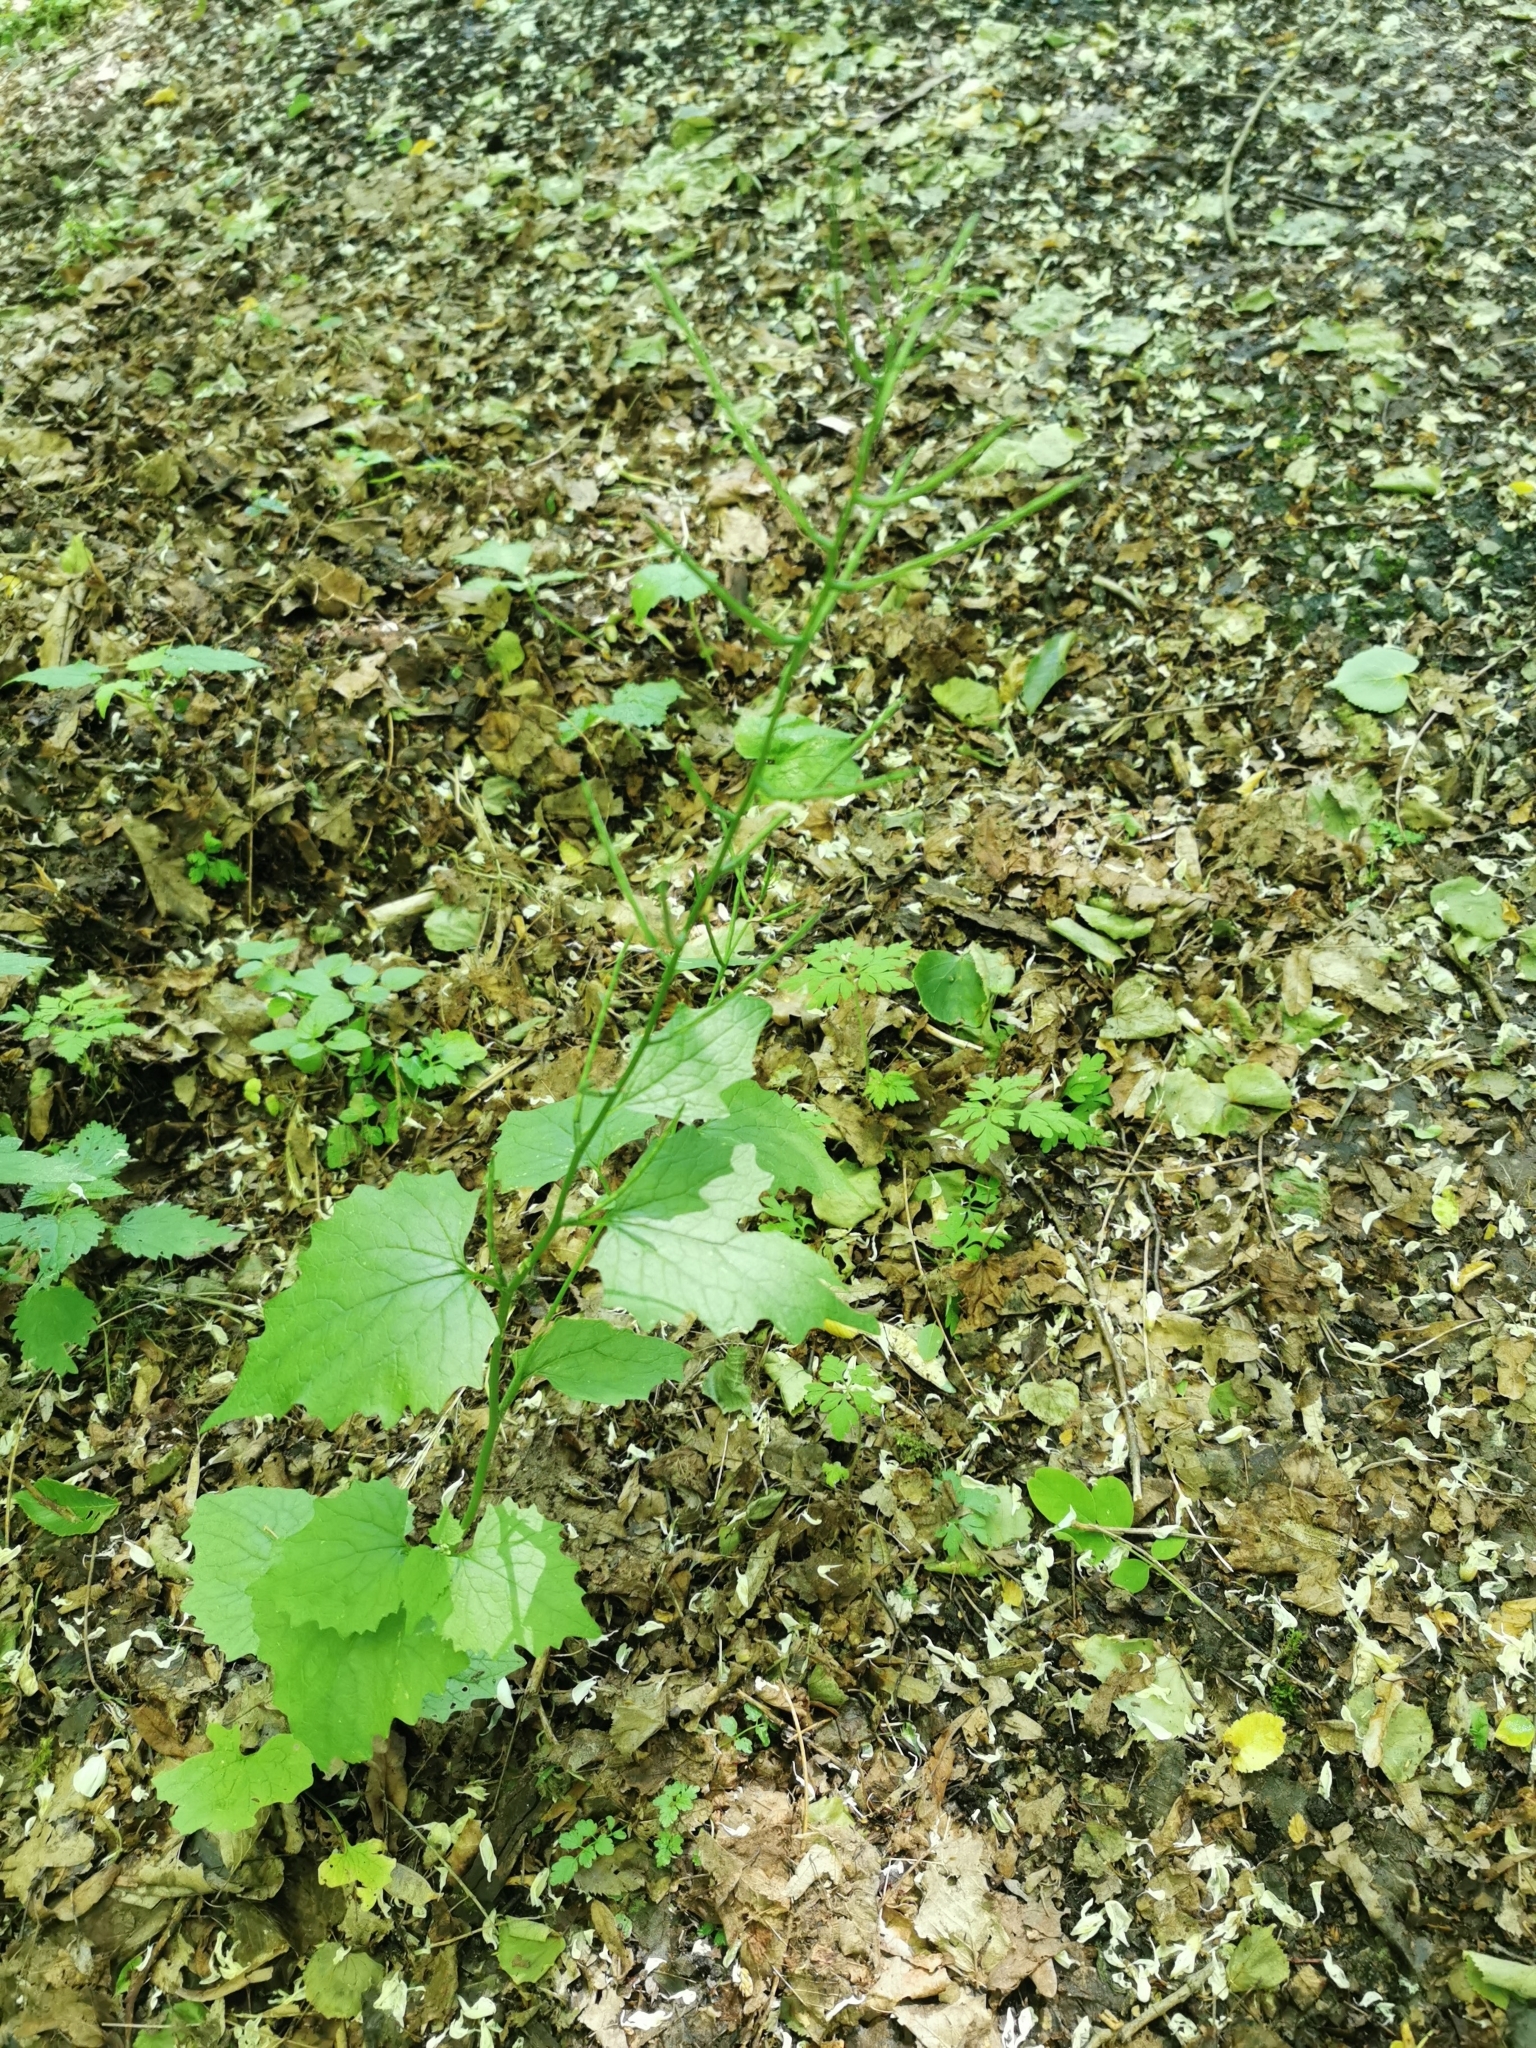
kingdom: Plantae
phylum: Tracheophyta
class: Magnoliopsida
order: Brassicales
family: Brassicaceae
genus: Alliaria
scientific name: Alliaria petiolata
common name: Garlic mustard
